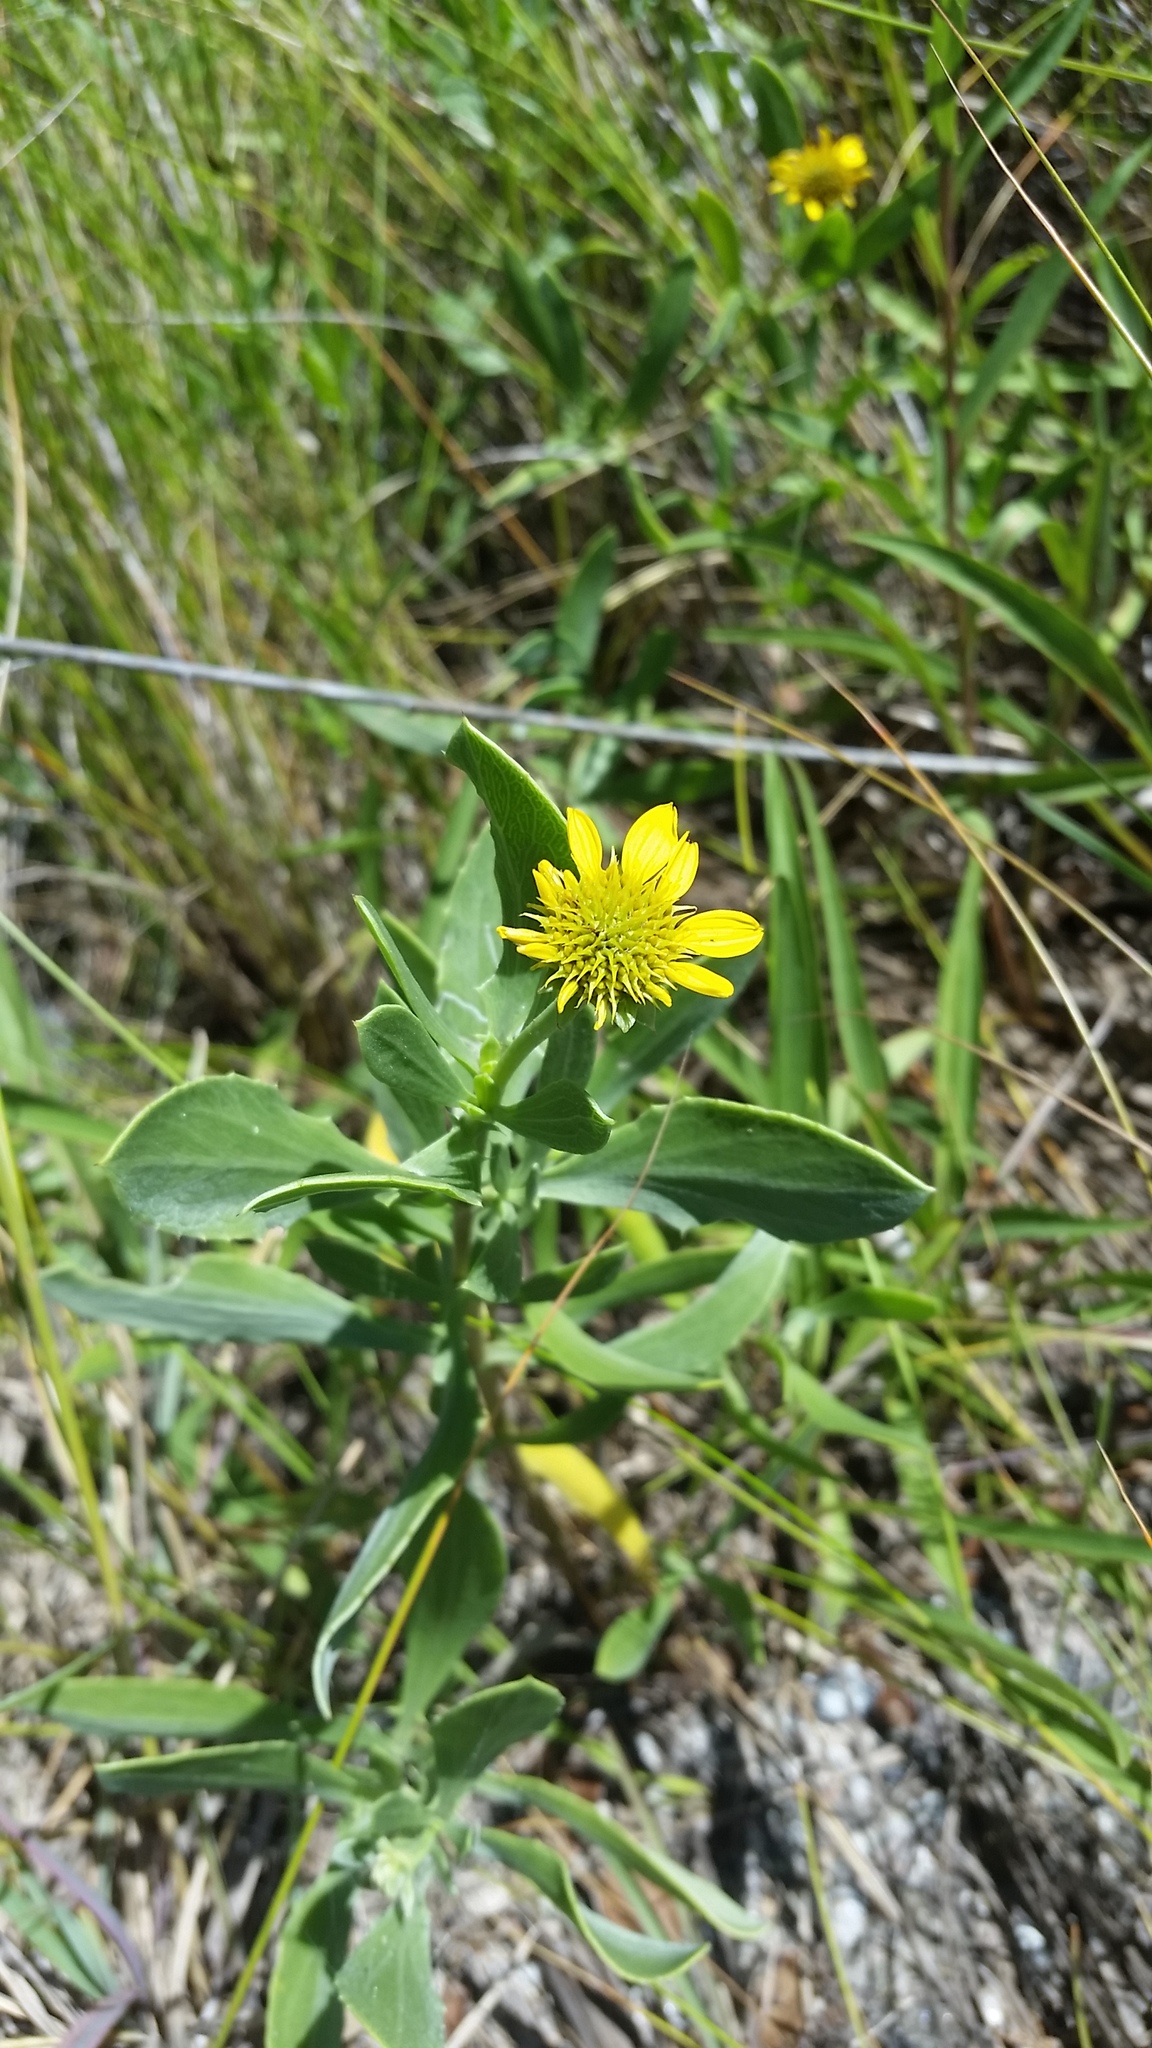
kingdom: Plantae
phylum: Tracheophyta
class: Magnoliopsida
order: Asterales
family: Asteraceae
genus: Borrichia
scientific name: Borrichia frutescens
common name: Sea oxeye
